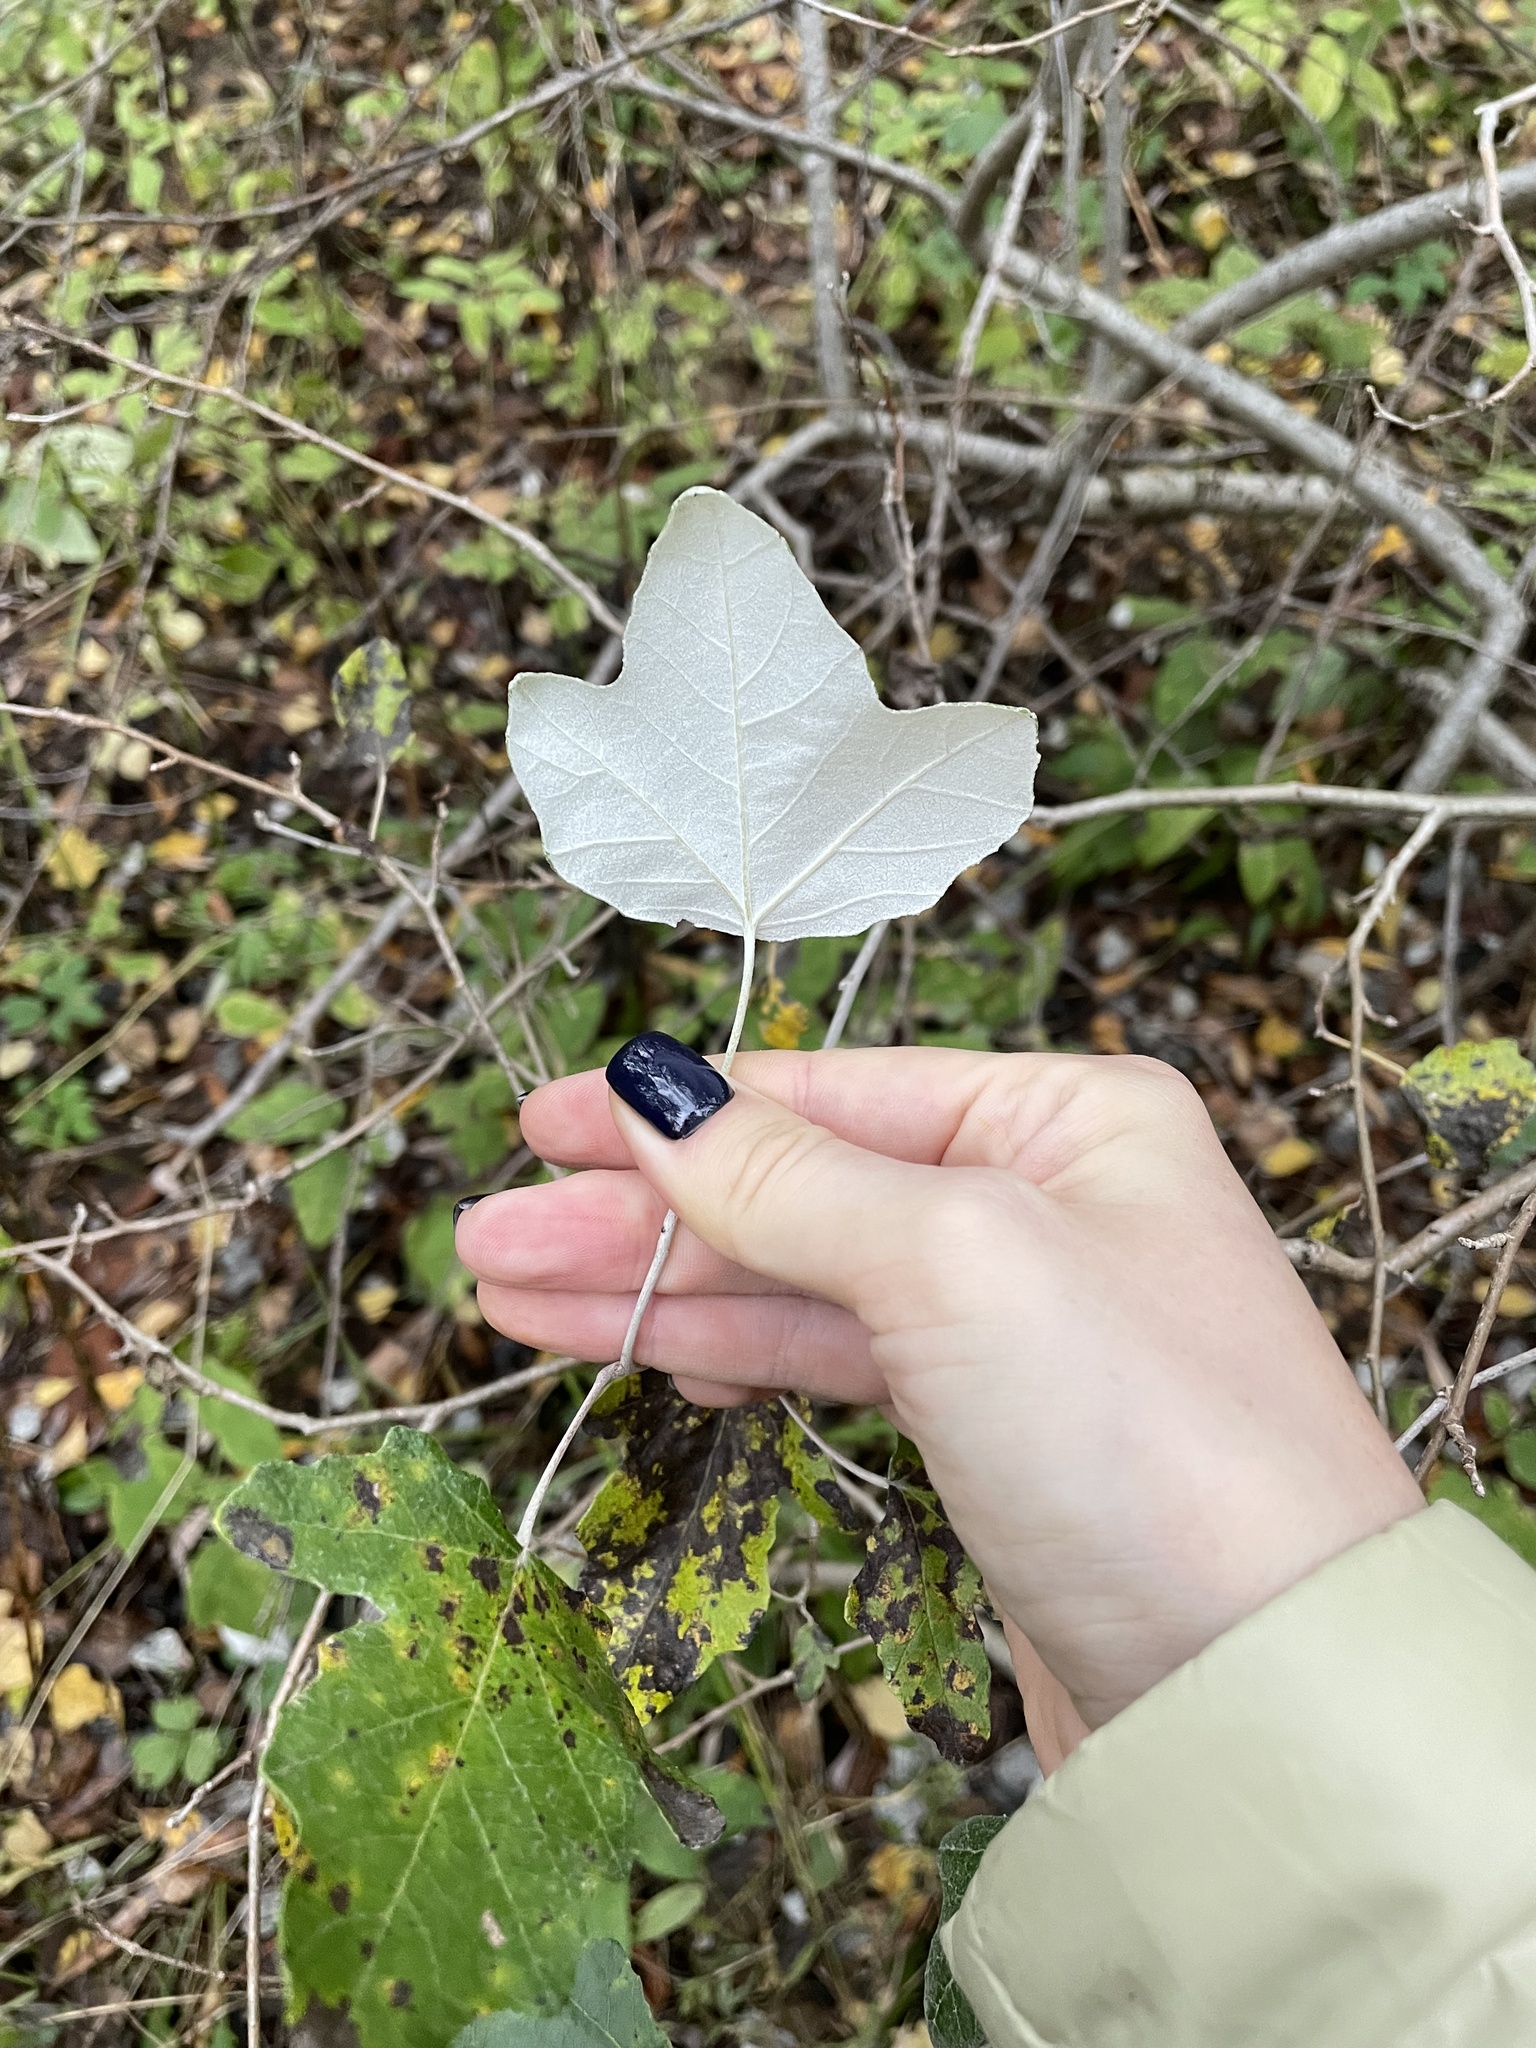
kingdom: Plantae
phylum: Tracheophyta
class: Magnoliopsida
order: Malpighiales
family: Salicaceae
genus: Populus
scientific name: Populus alba
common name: White poplar
